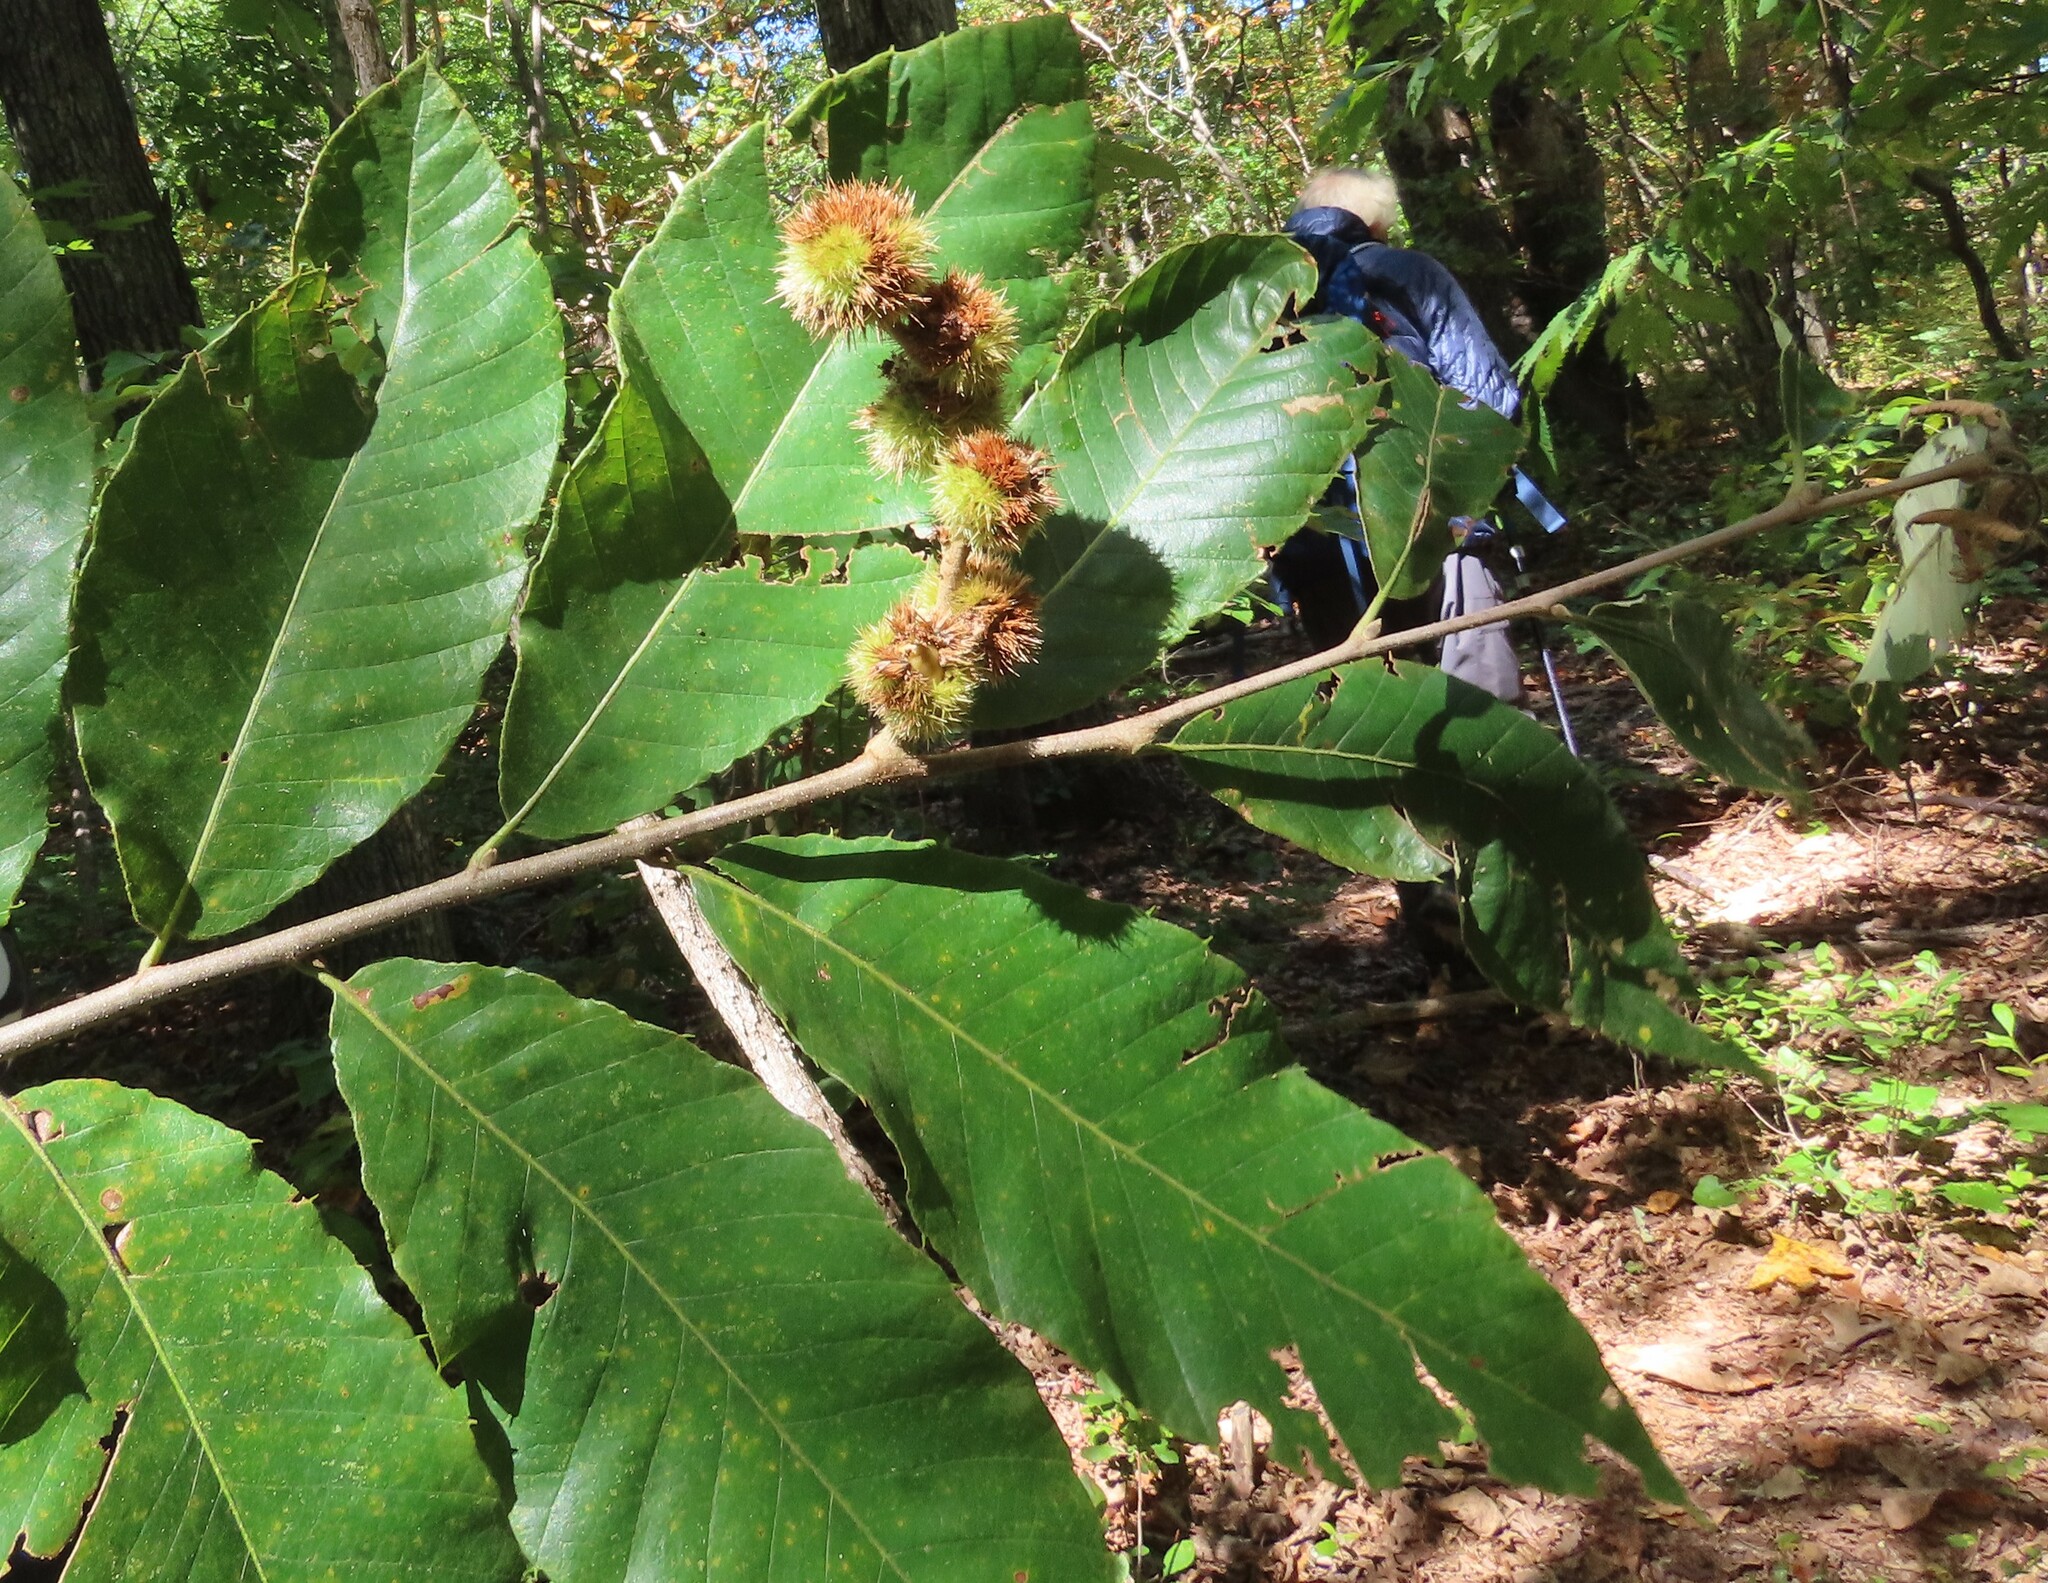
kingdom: Plantae
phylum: Tracheophyta
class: Magnoliopsida
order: Fagales
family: Fagaceae
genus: Castanea
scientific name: Castanea pumila
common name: Chinkapin
